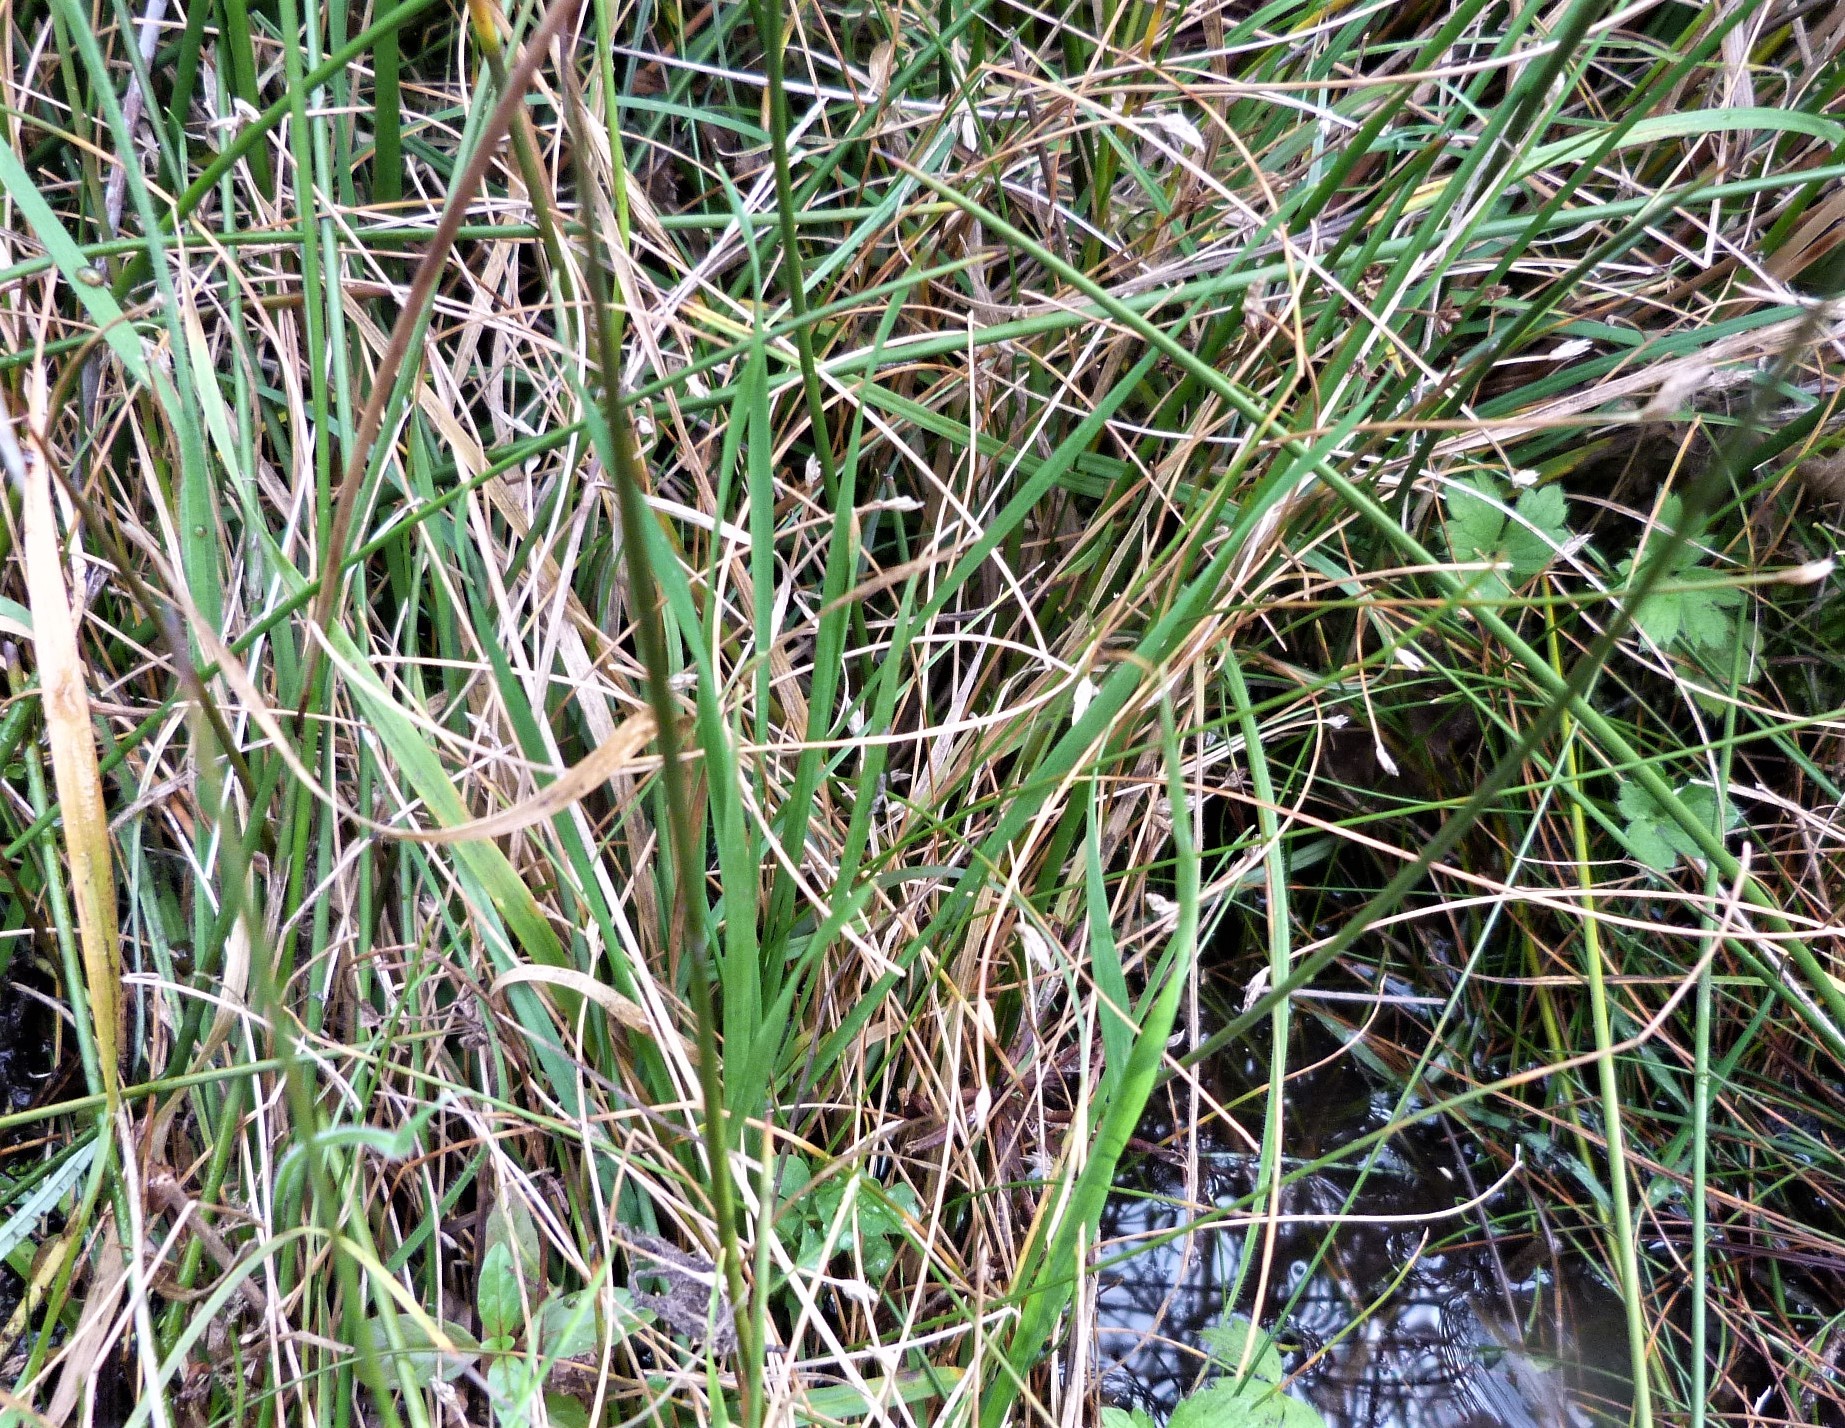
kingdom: Plantae
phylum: Tracheophyta
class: Liliopsida
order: Poales
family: Cyperaceae
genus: Eleocharis
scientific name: Eleocharis gracilis
